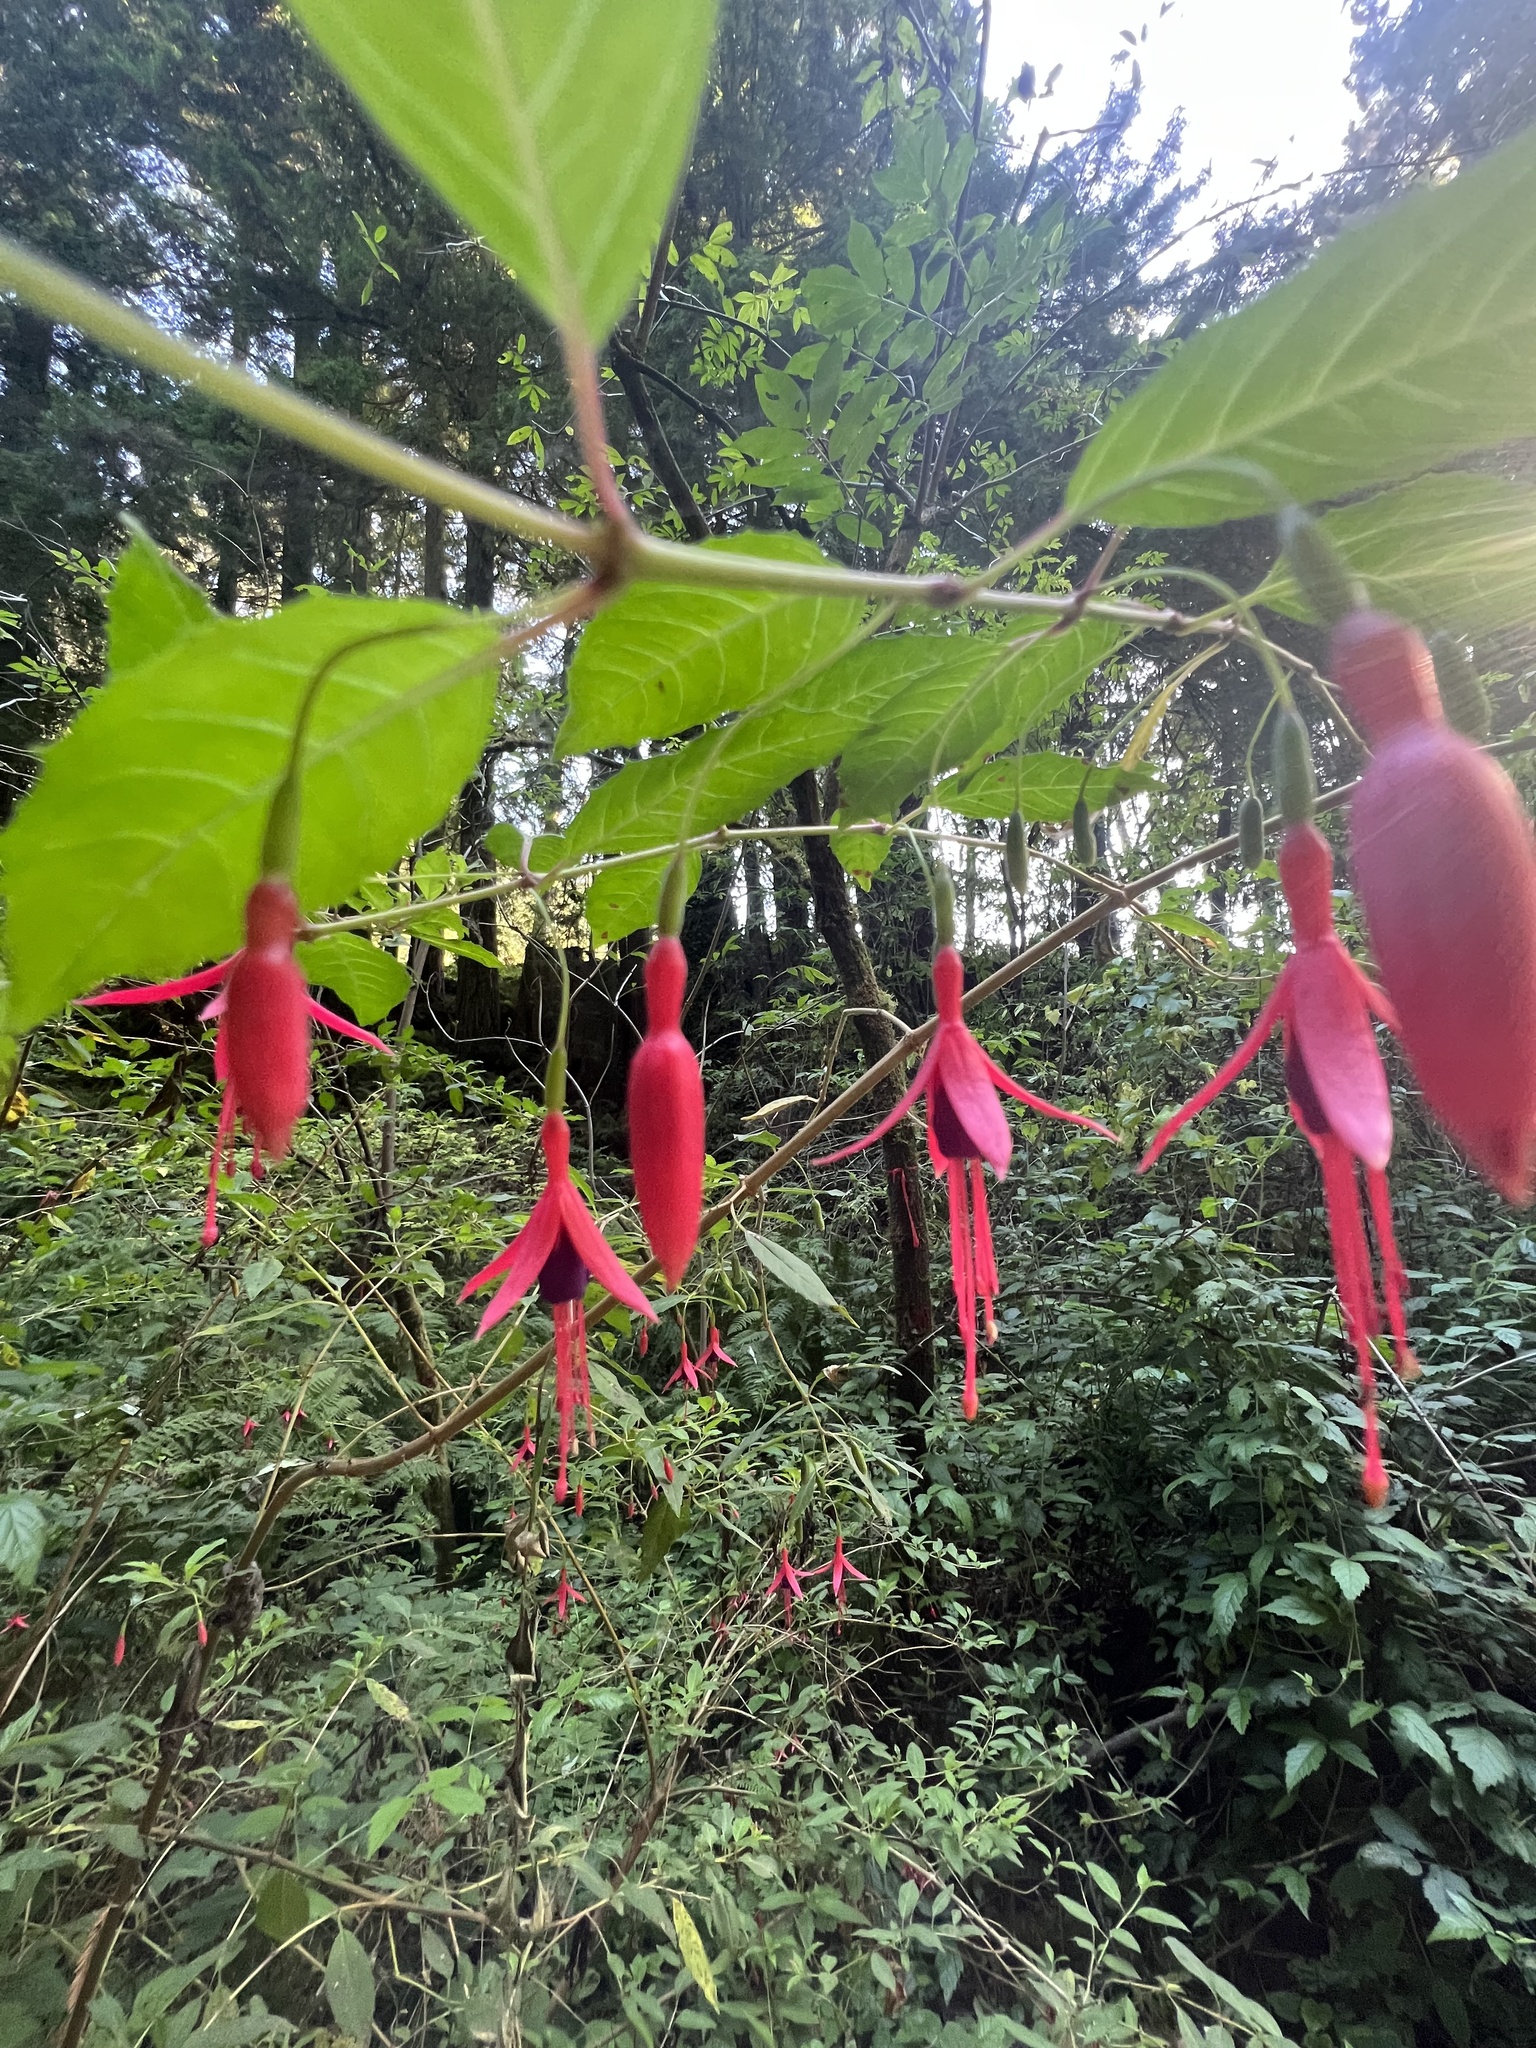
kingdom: Plantae
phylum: Tracheophyta
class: Magnoliopsida
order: Myrtales
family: Onagraceae
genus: Fuchsia
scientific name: Fuchsia magellanica
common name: Hardy fuchsia
